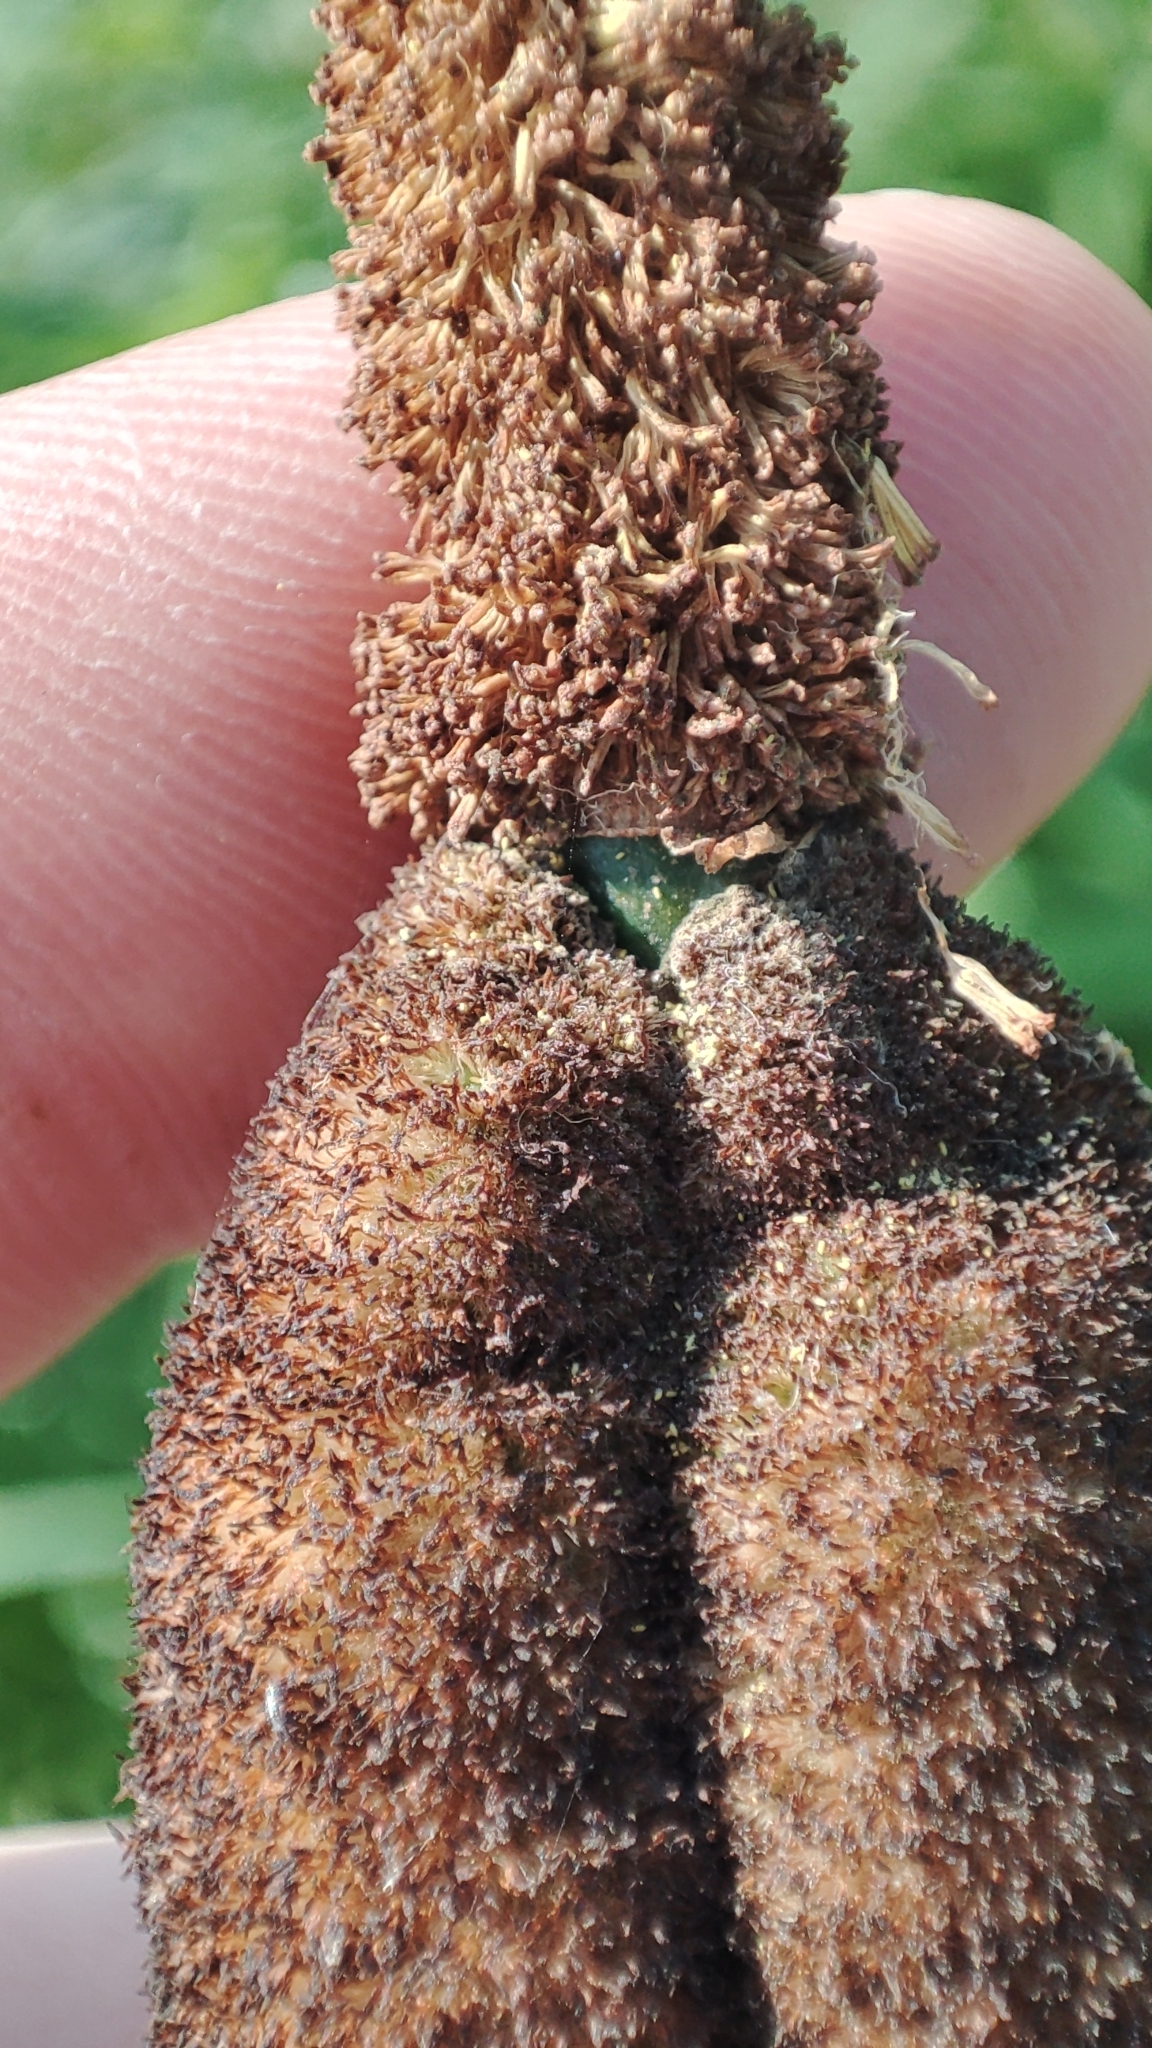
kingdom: Plantae
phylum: Tracheophyta
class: Liliopsida
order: Poales
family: Typhaceae
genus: Typha
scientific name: Typha incana
